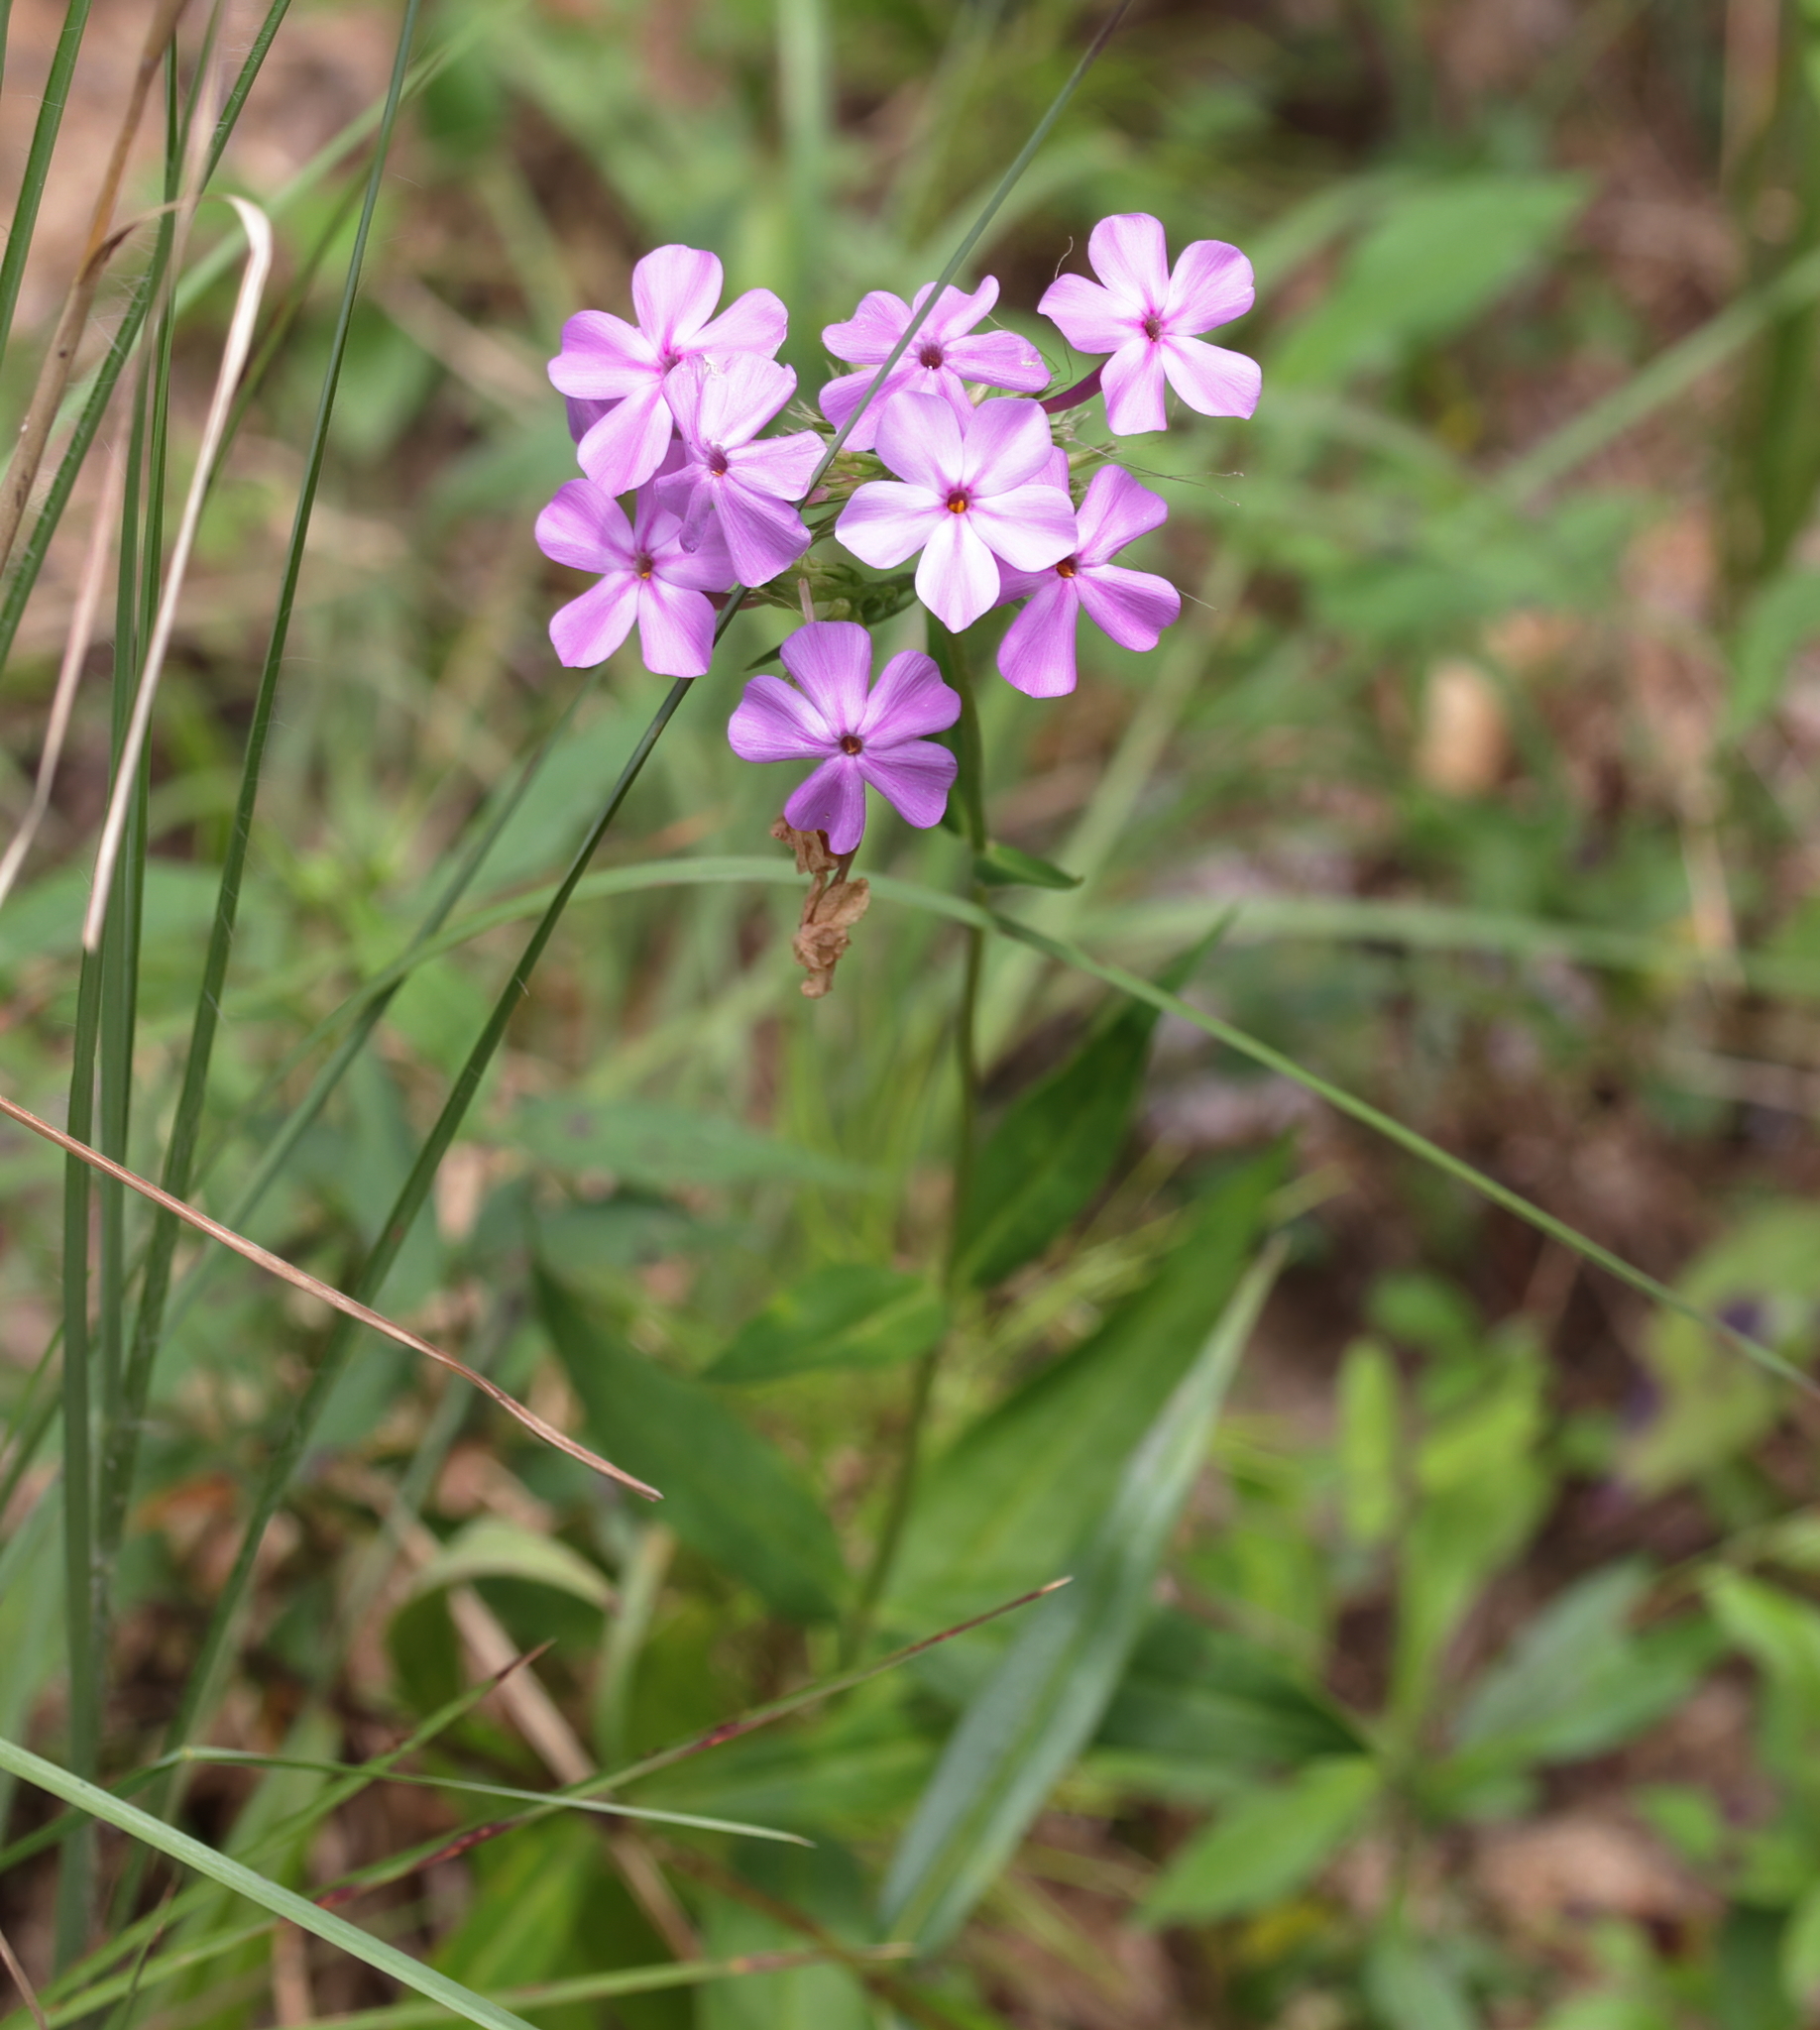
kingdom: Plantae
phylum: Tracheophyta
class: Magnoliopsida
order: Ericales
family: Polemoniaceae
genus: Phlox
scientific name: Phlox carolina
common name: Thick-leaf phlox
